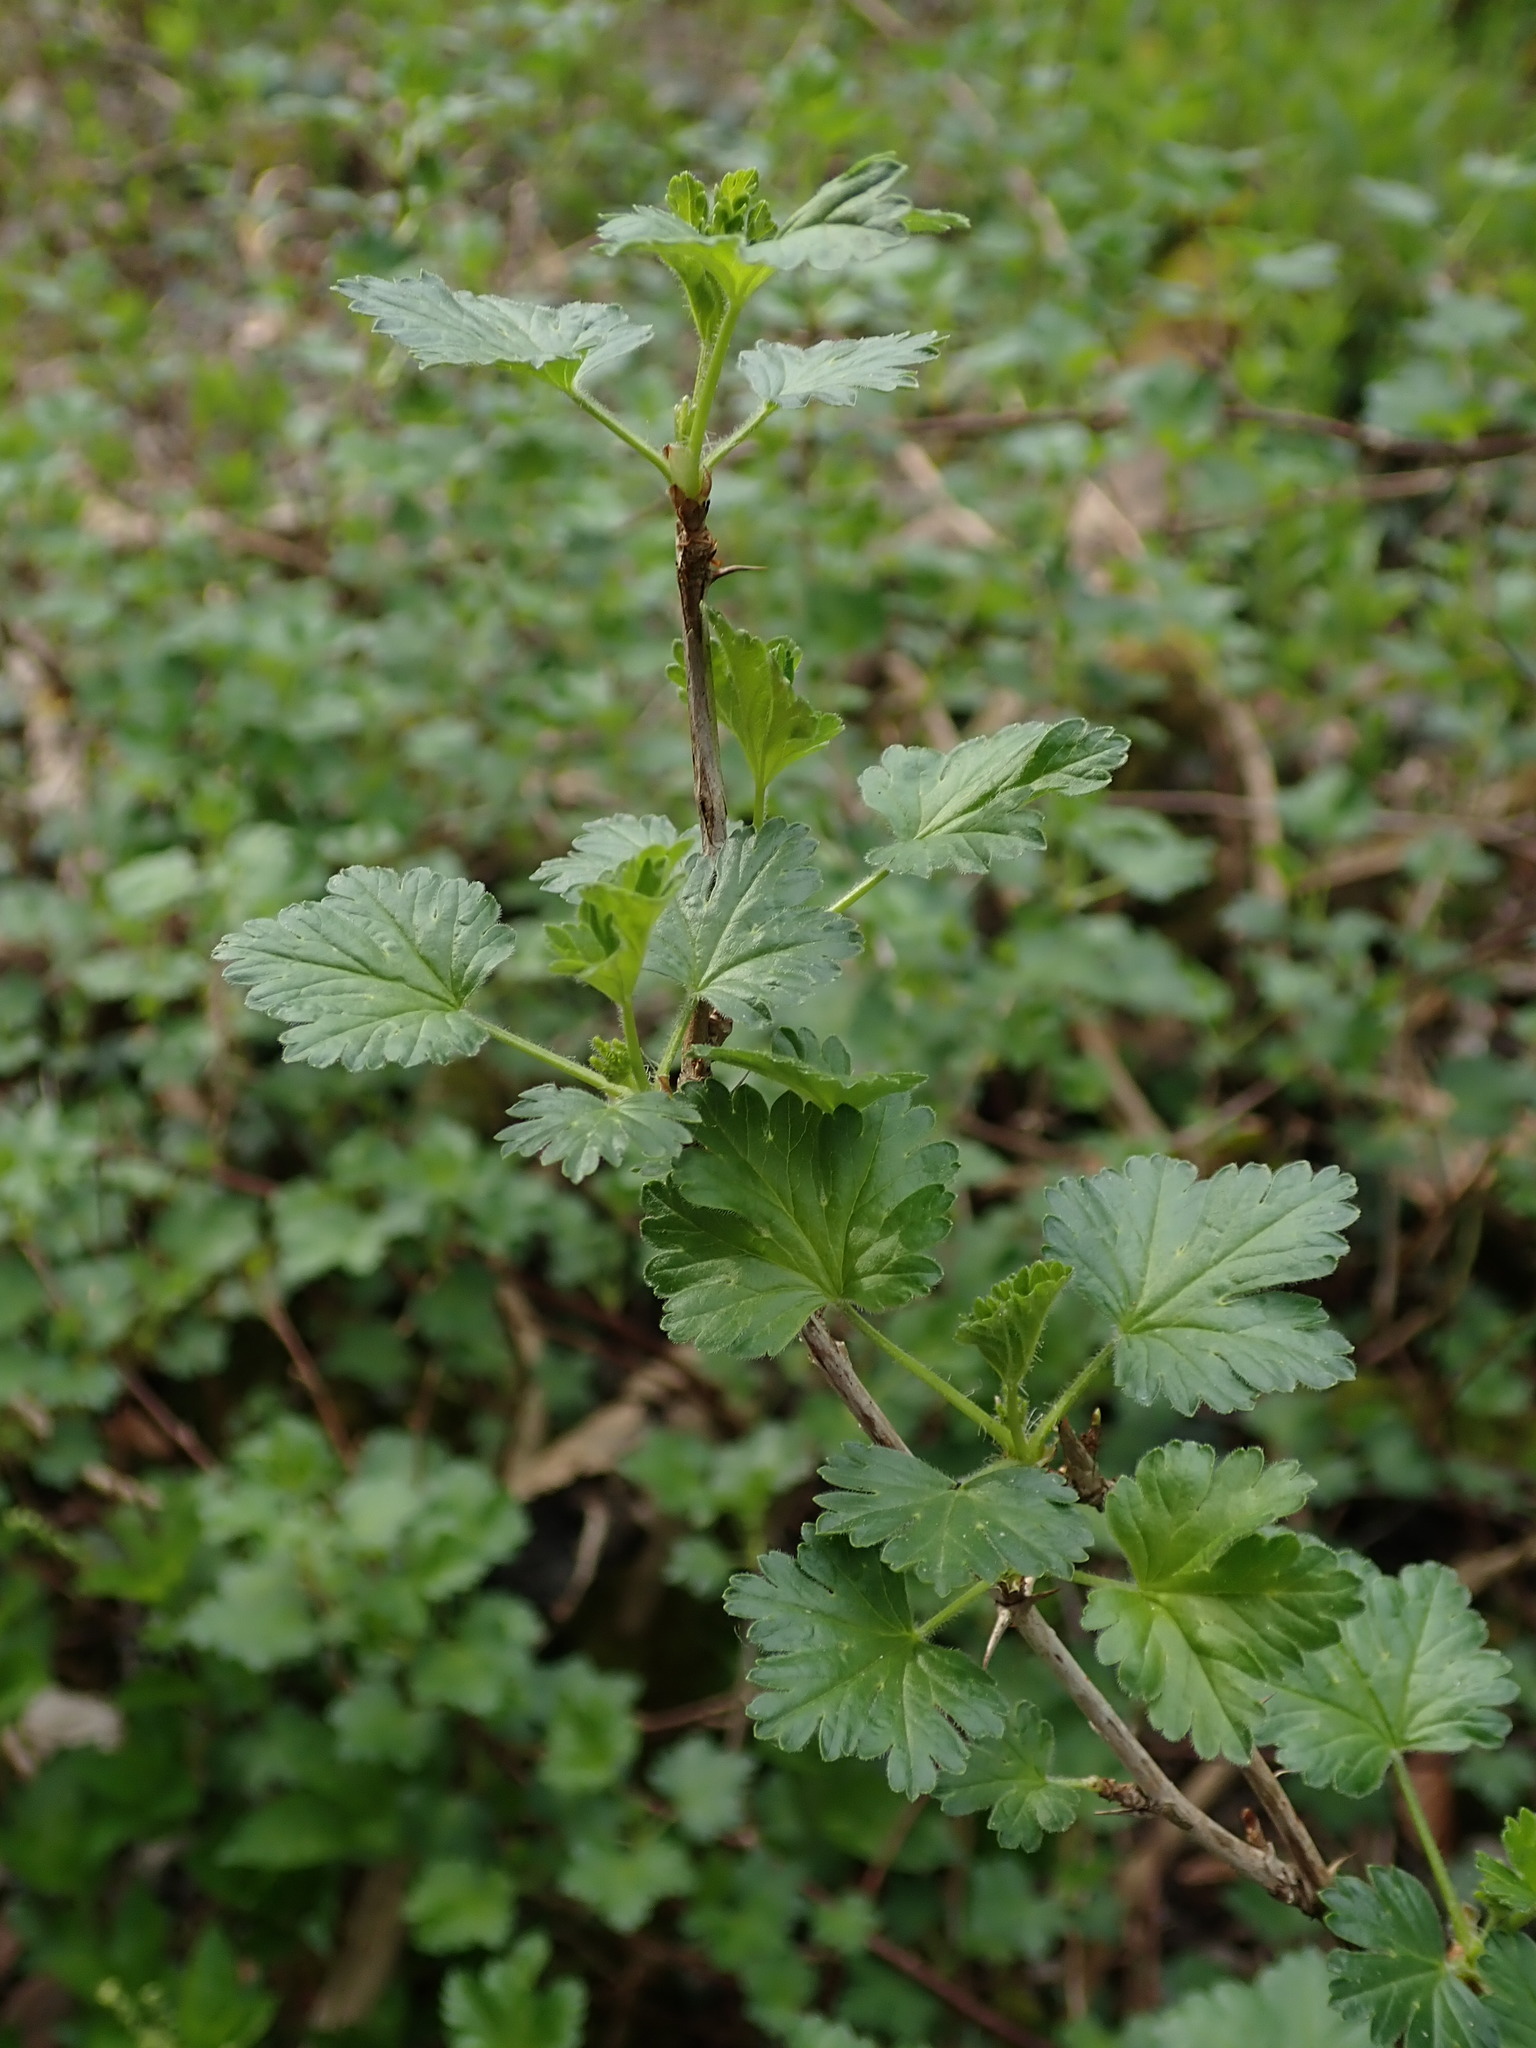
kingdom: Plantae
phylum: Tracheophyta
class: Magnoliopsida
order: Saxifragales
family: Grossulariaceae
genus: Ribes
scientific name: Ribes uva-crispa
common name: Gooseberry
